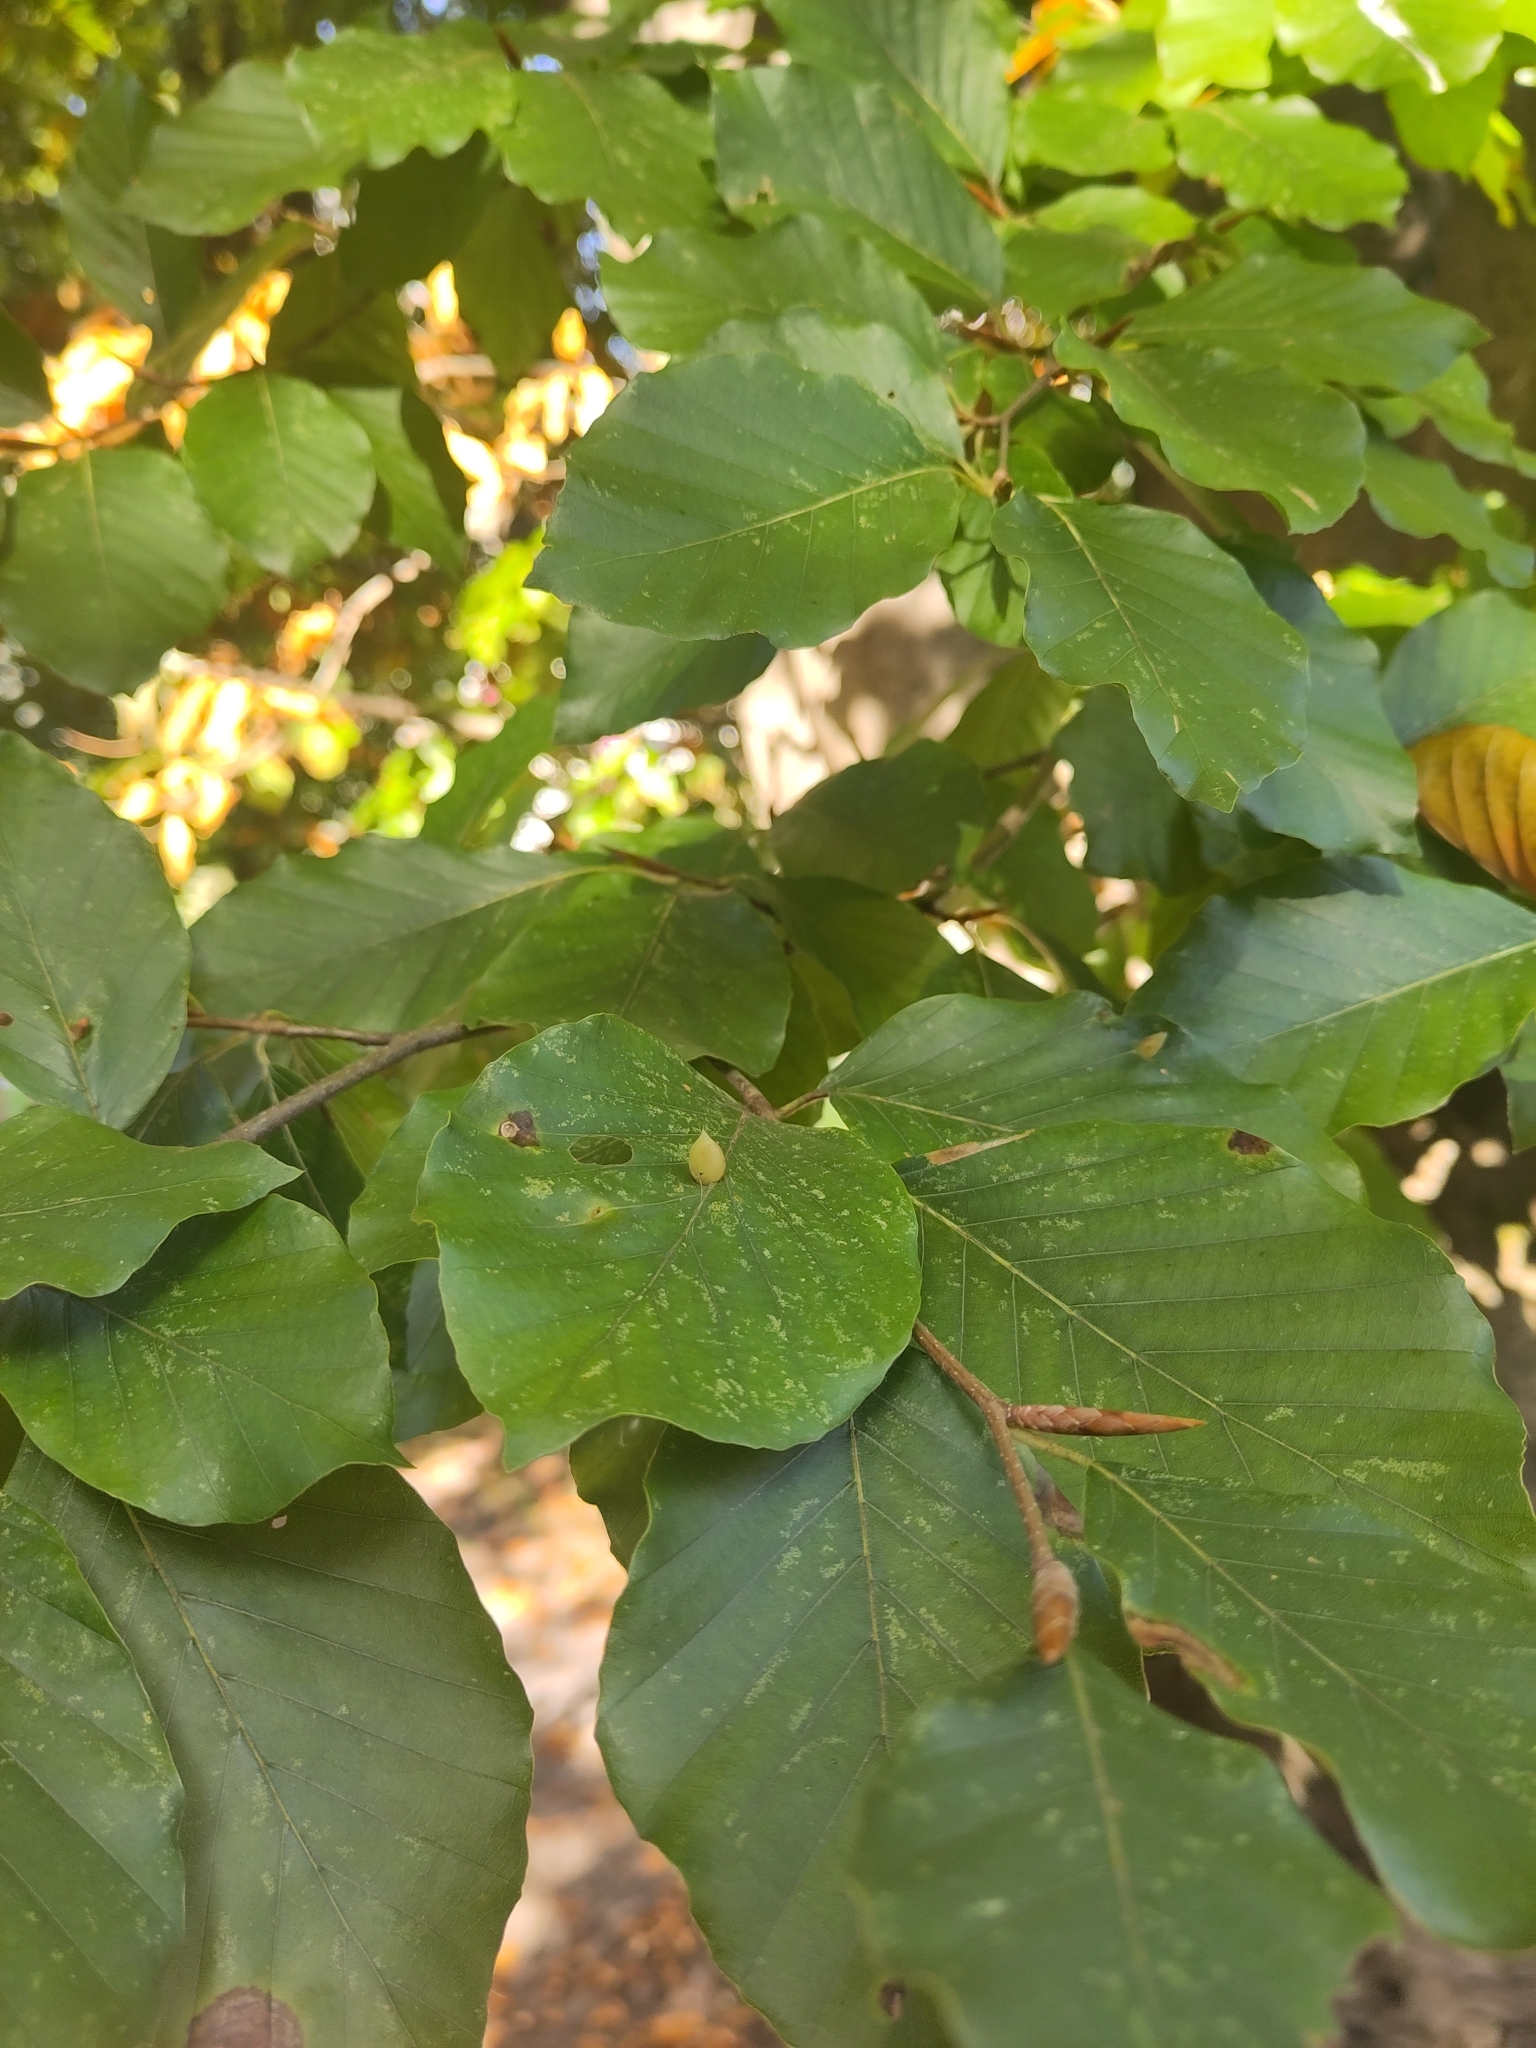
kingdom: Animalia
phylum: Arthropoda
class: Insecta
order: Diptera
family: Cecidomyiidae
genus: Mikiola
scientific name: Mikiola fagi
